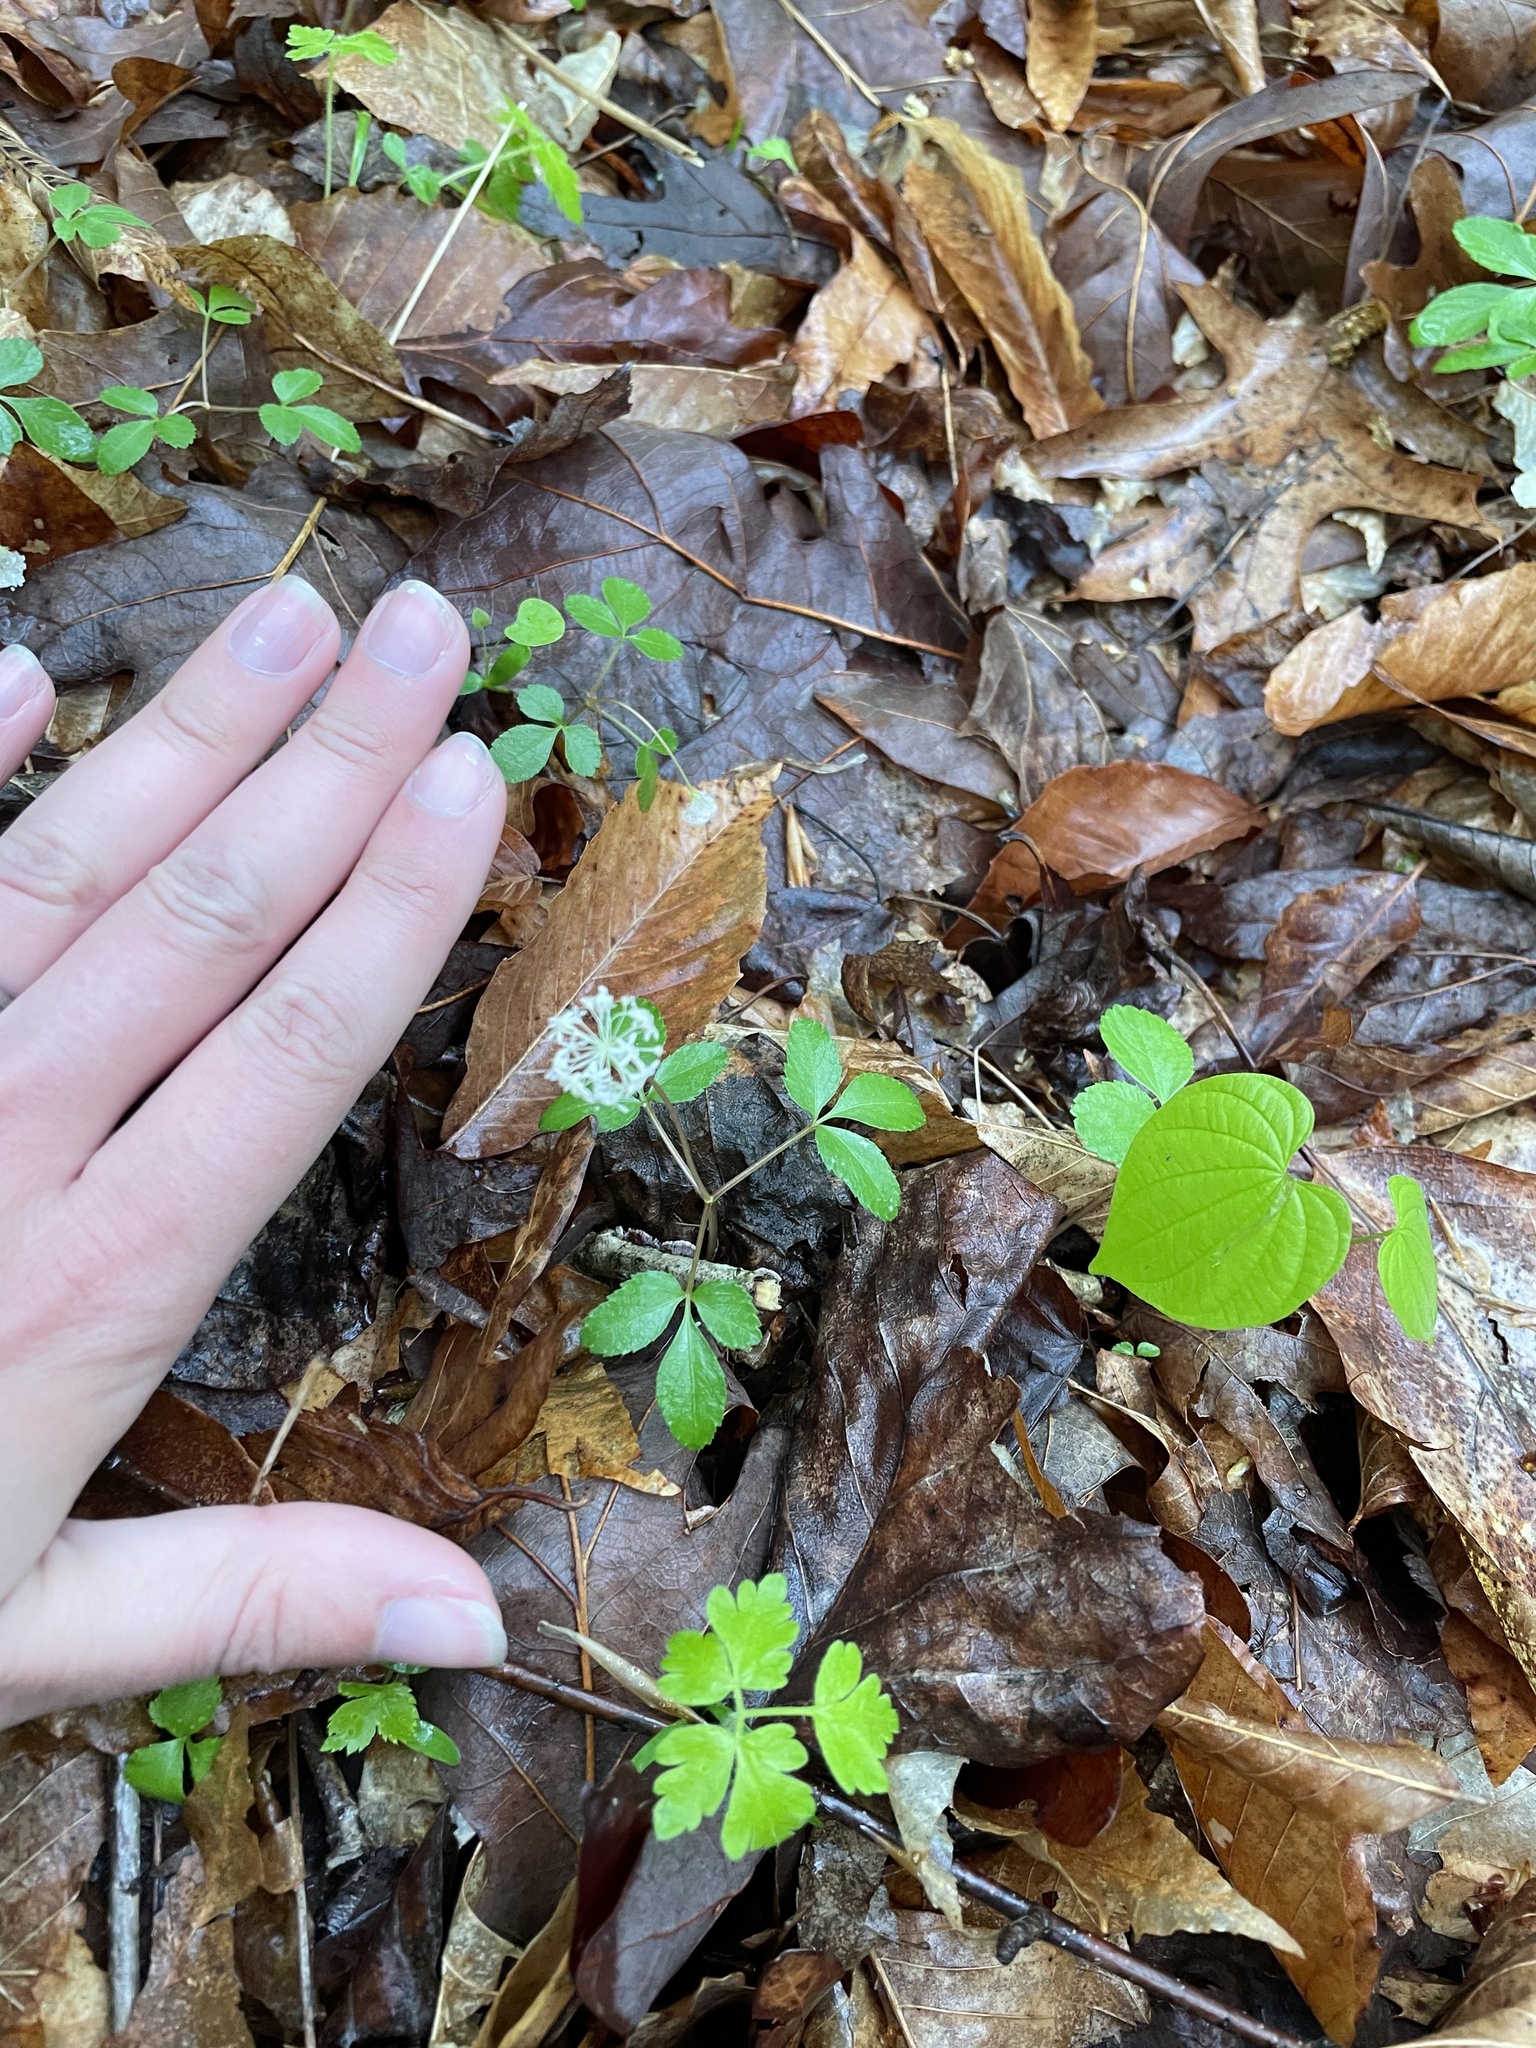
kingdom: Plantae
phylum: Tracheophyta
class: Magnoliopsida
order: Apiales
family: Araliaceae
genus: Panax
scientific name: Panax trifolius
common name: Dwarf ginseng
